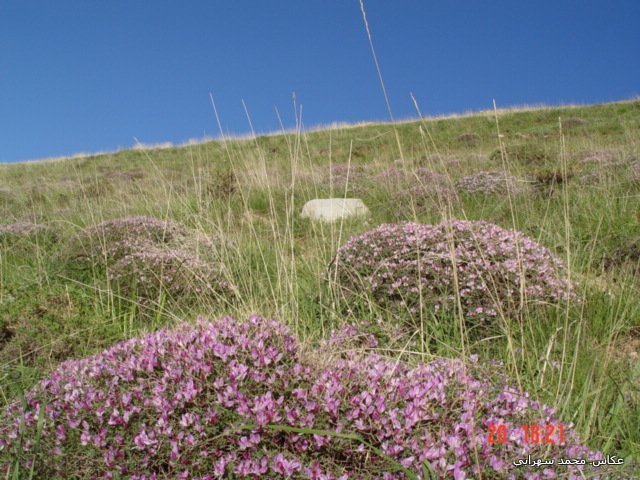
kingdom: Plantae
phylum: Tracheophyta
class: Magnoliopsida
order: Fabales
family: Fabaceae
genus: Onobrychis
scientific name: Onobrychis cornuta
